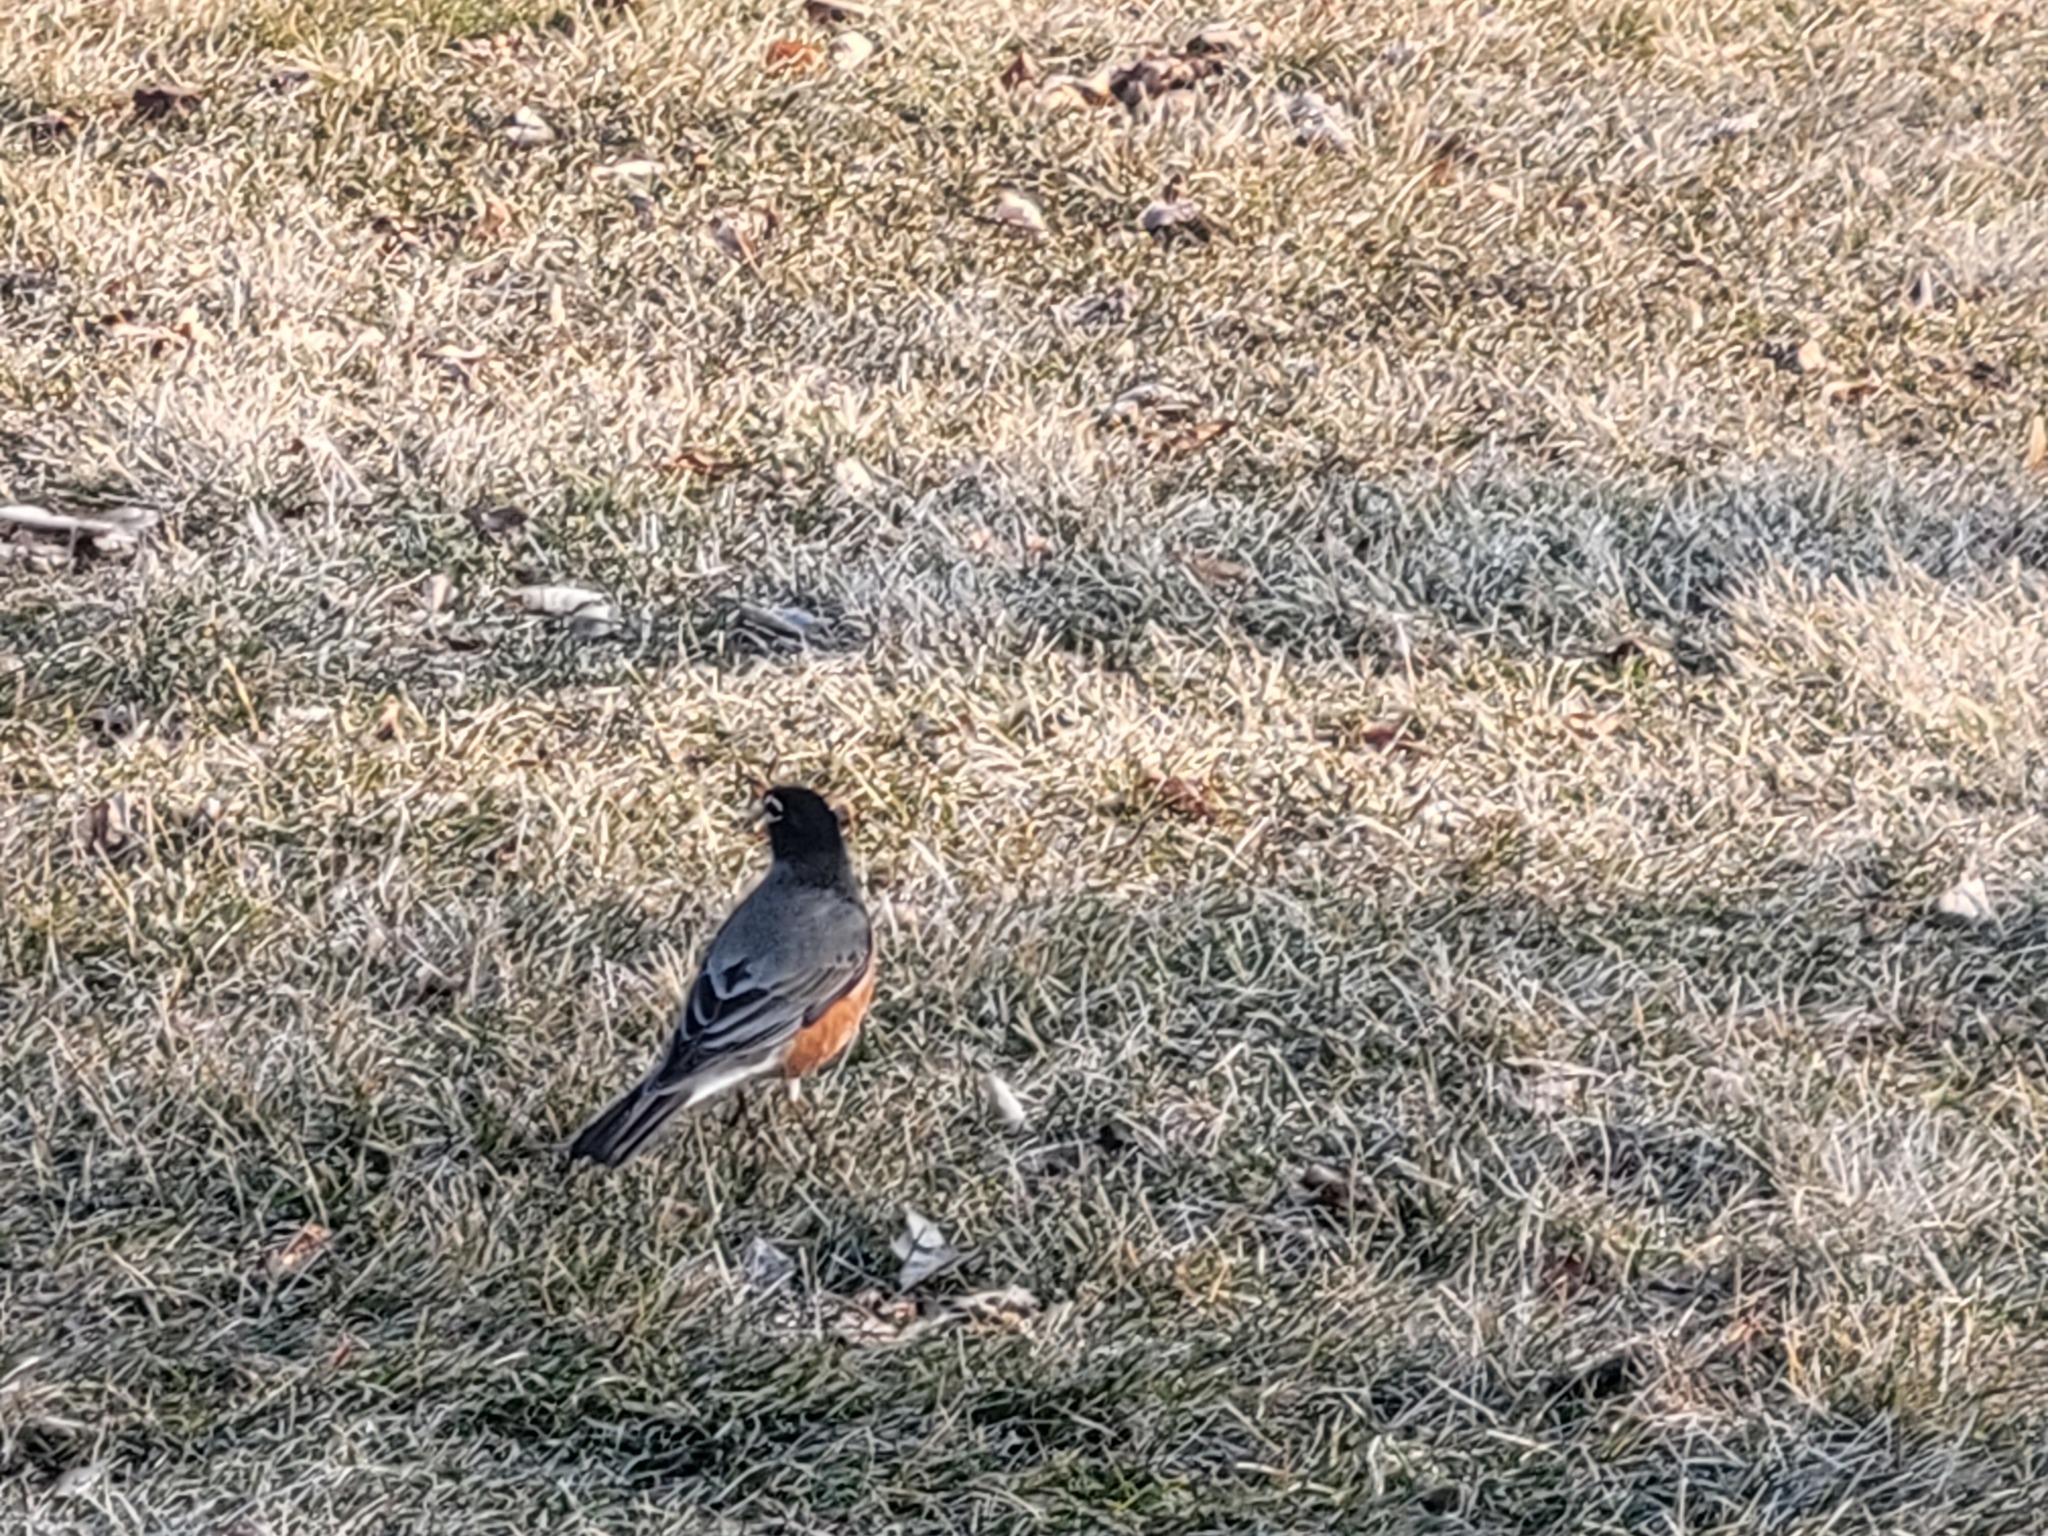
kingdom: Animalia
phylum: Chordata
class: Aves
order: Passeriformes
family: Turdidae
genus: Turdus
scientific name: Turdus migratorius
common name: American robin
